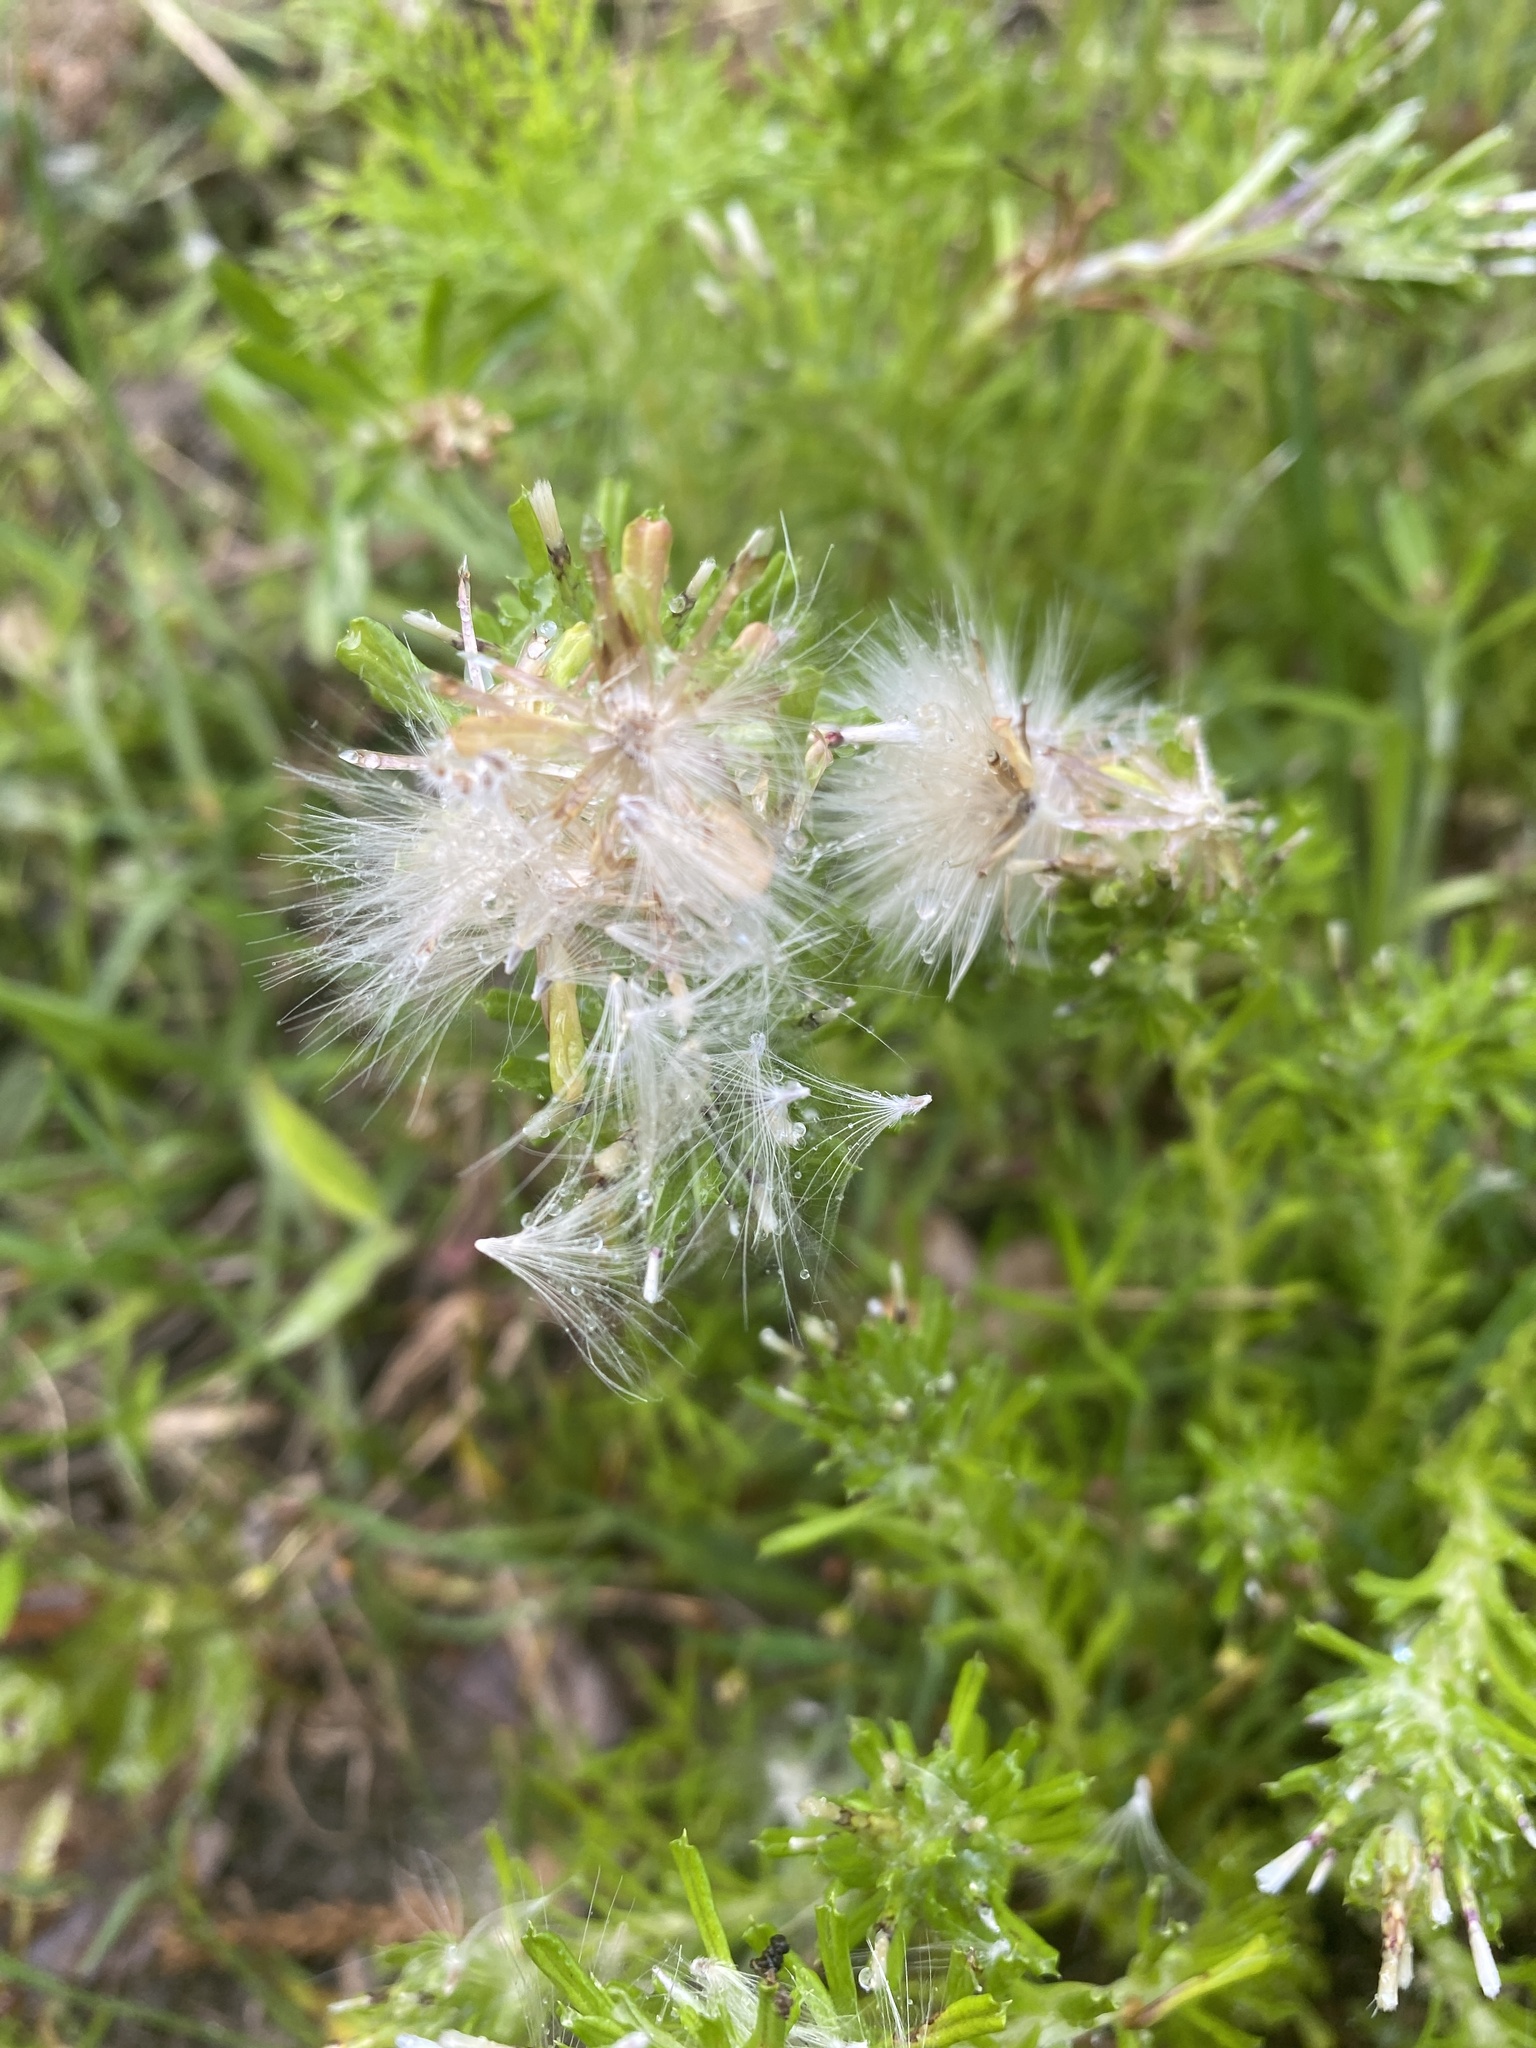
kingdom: Plantae
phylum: Tracheophyta
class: Magnoliopsida
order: Asterales
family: Asteraceae
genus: Facelis
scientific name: Facelis retusa
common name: Annual trampweed
